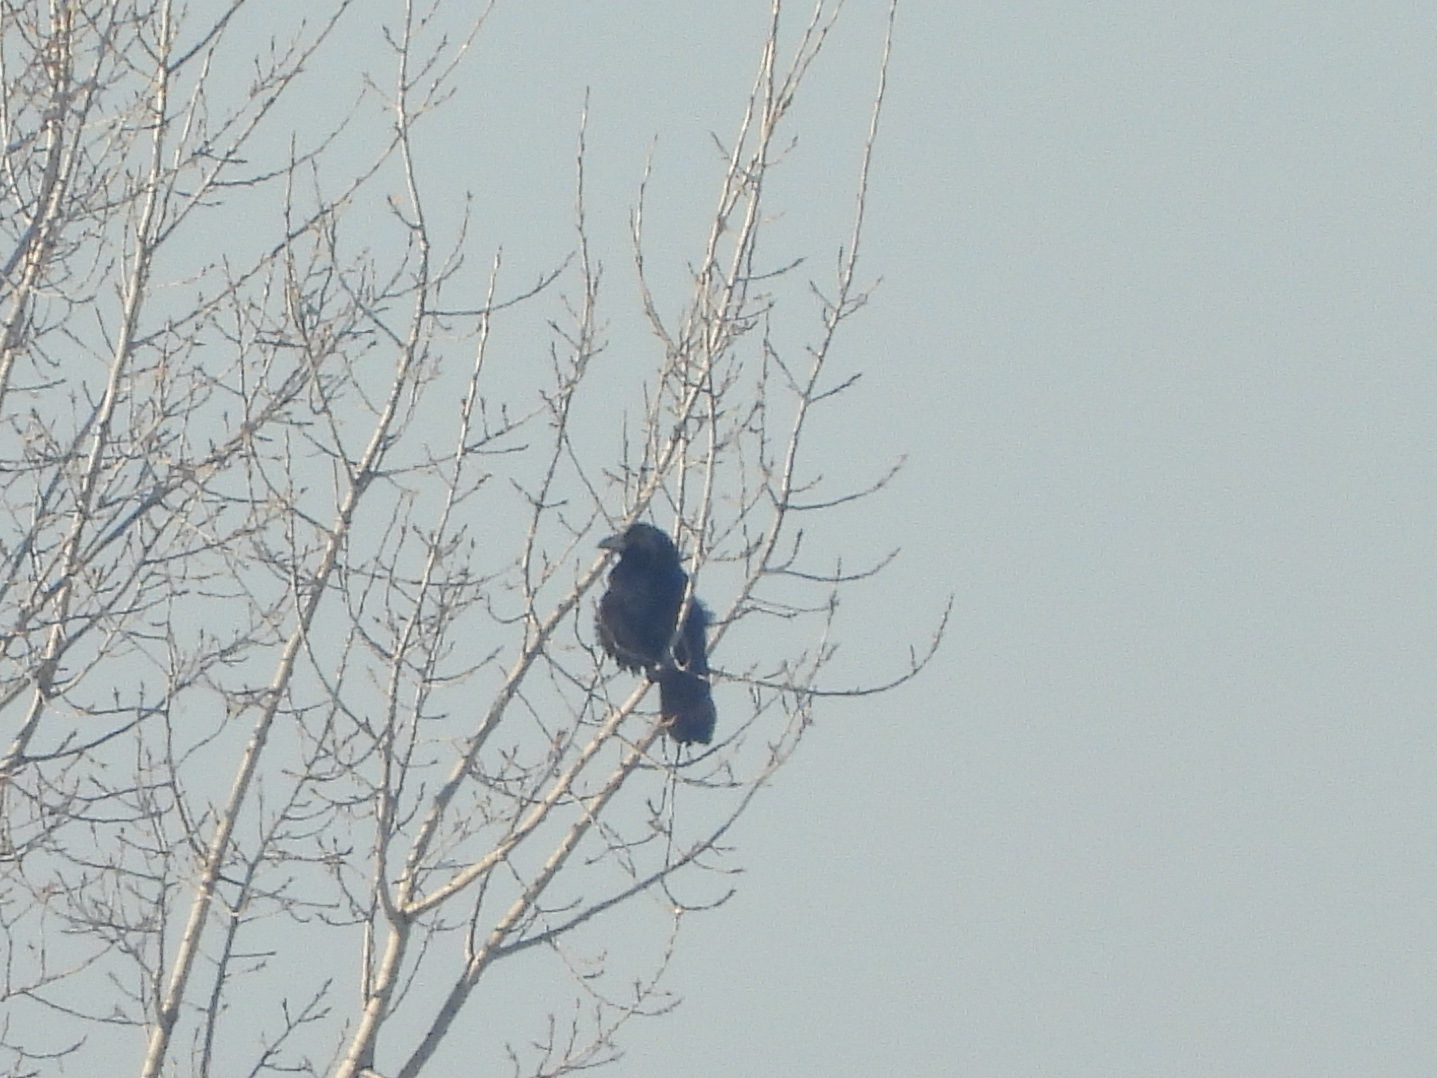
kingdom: Animalia
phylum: Chordata
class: Aves
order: Passeriformes
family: Corvidae
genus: Corvus
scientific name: Corvus corax
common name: Common raven
